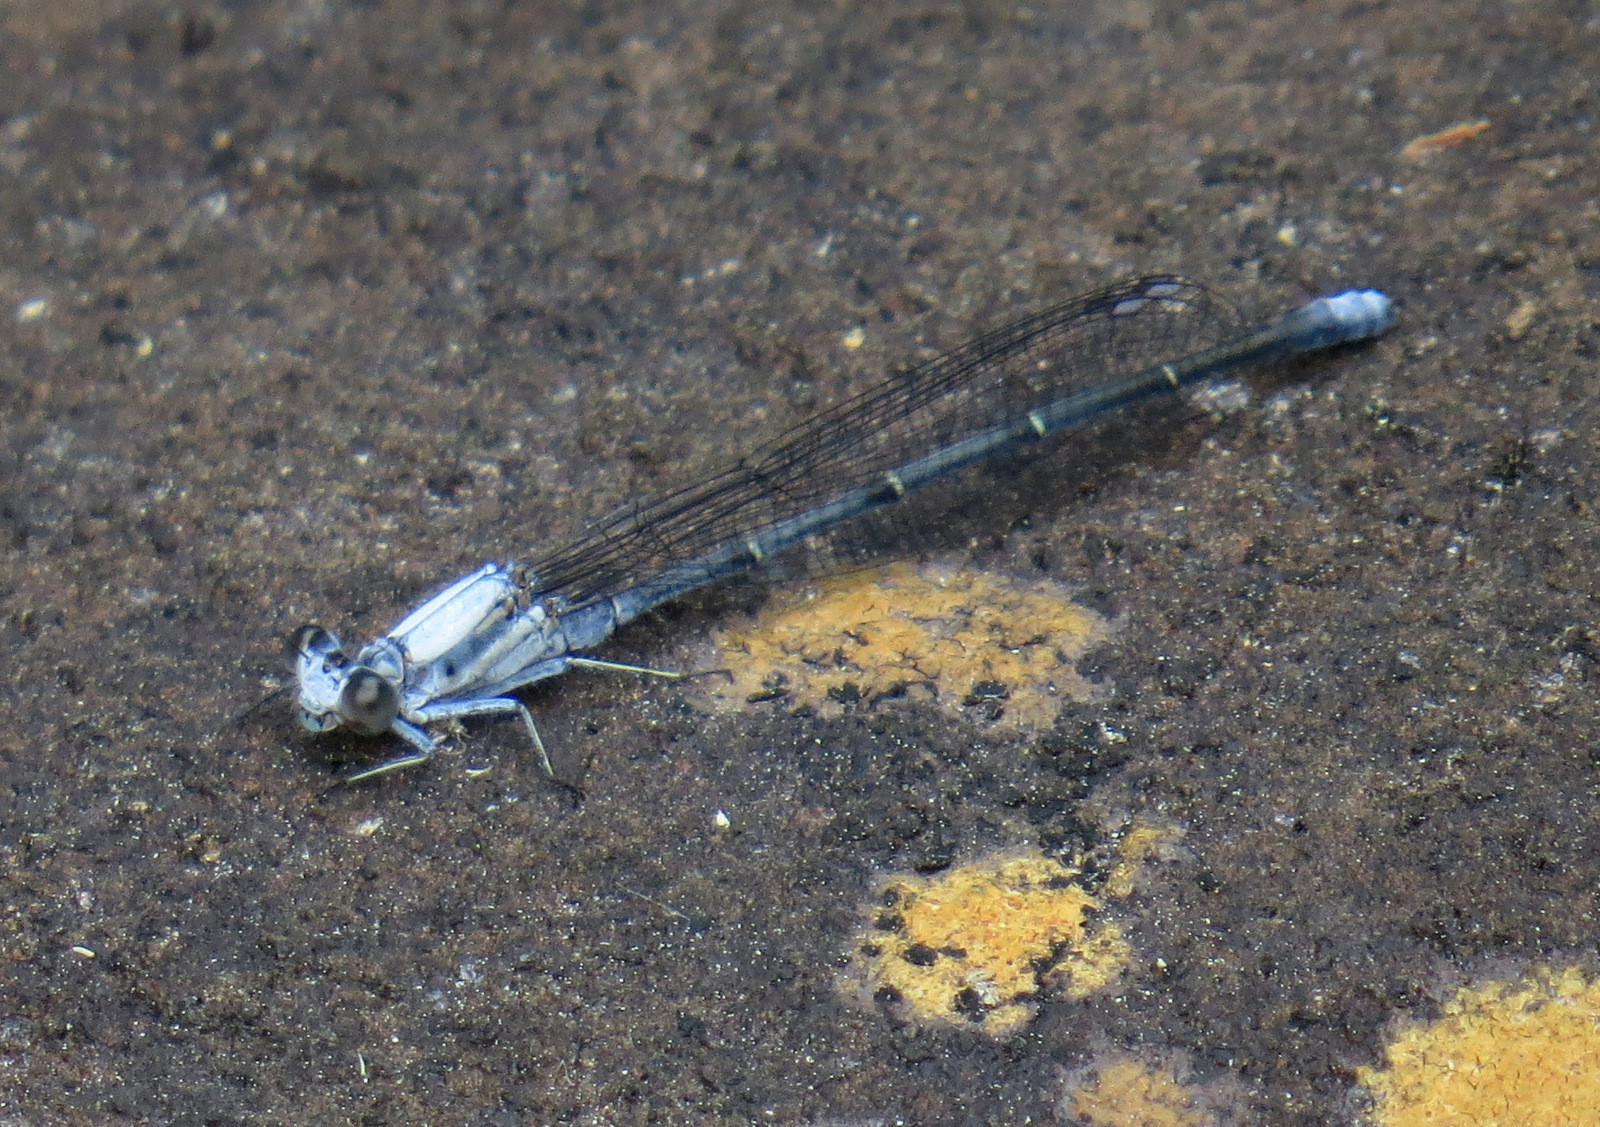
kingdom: Animalia
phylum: Arthropoda
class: Insecta
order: Odonata
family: Coenagrionidae
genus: Argia
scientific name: Argia moesta
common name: Powdered dancer
